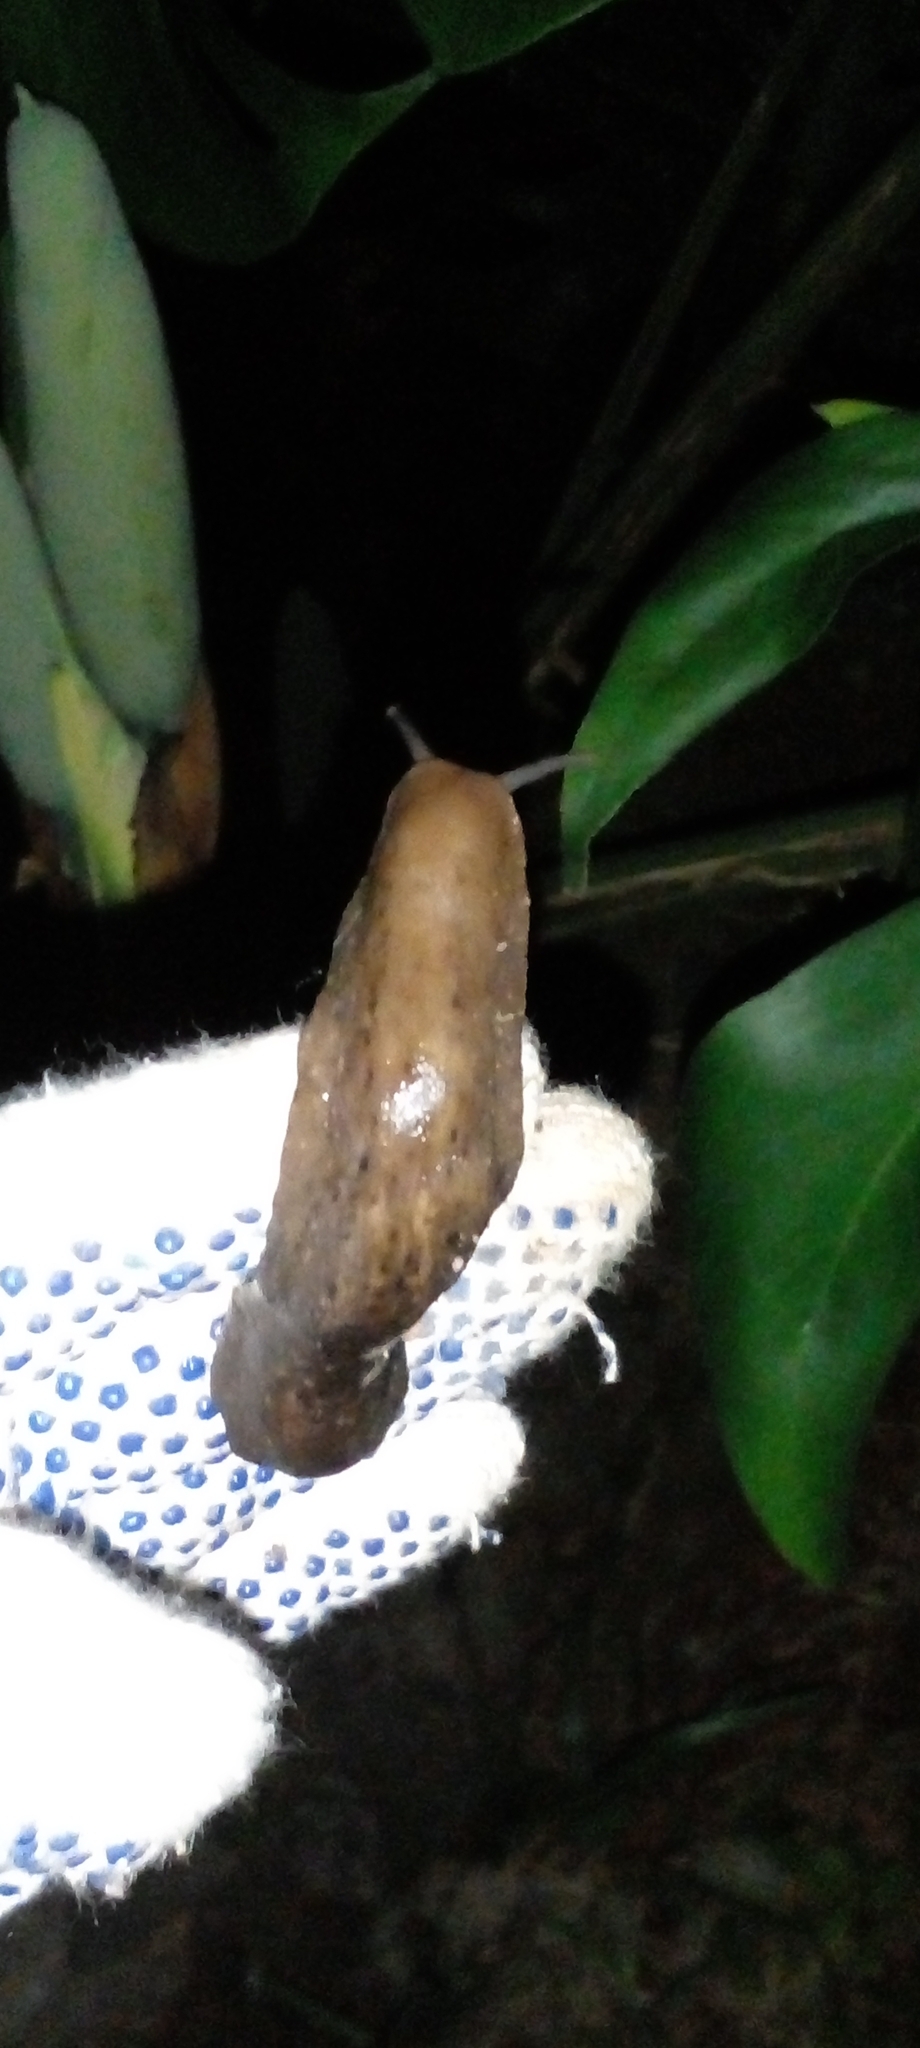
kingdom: Animalia
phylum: Mollusca
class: Gastropoda
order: Systellommatophora
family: Veronicellidae
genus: Phyllocaulis
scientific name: Phyllocaulis variegatus
